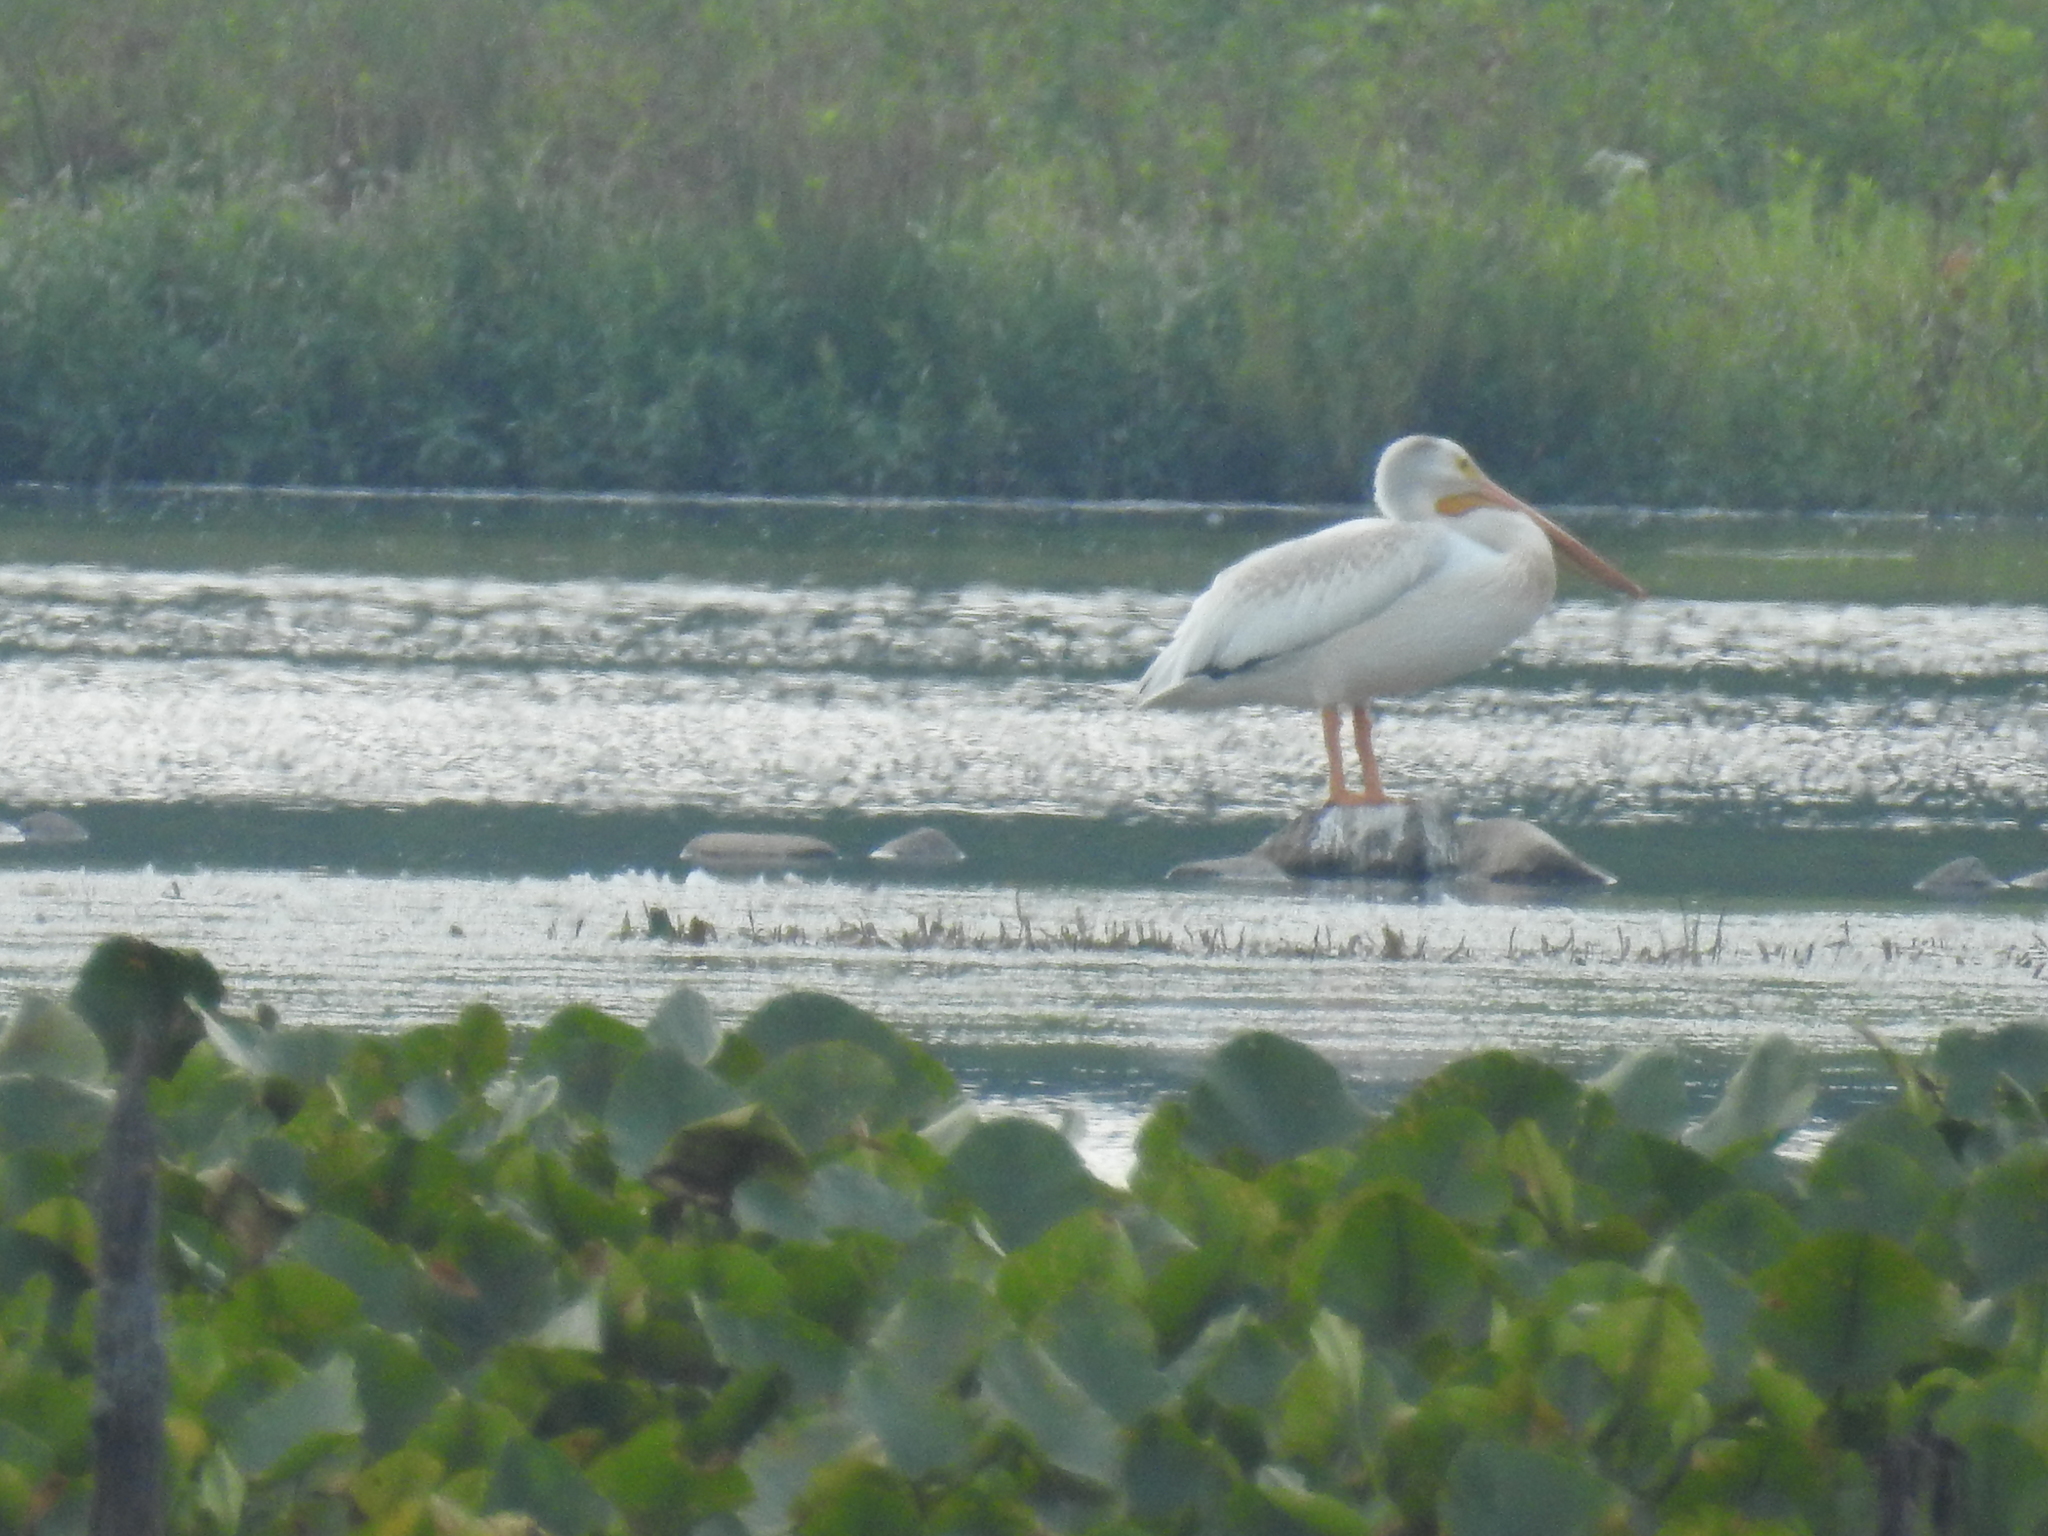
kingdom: Animalia
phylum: Chordata
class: Aves
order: Pelecaniformes
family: Pelecanidae
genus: Pelecanus
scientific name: Pelecanus erythrorhynchos
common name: American white pelican
